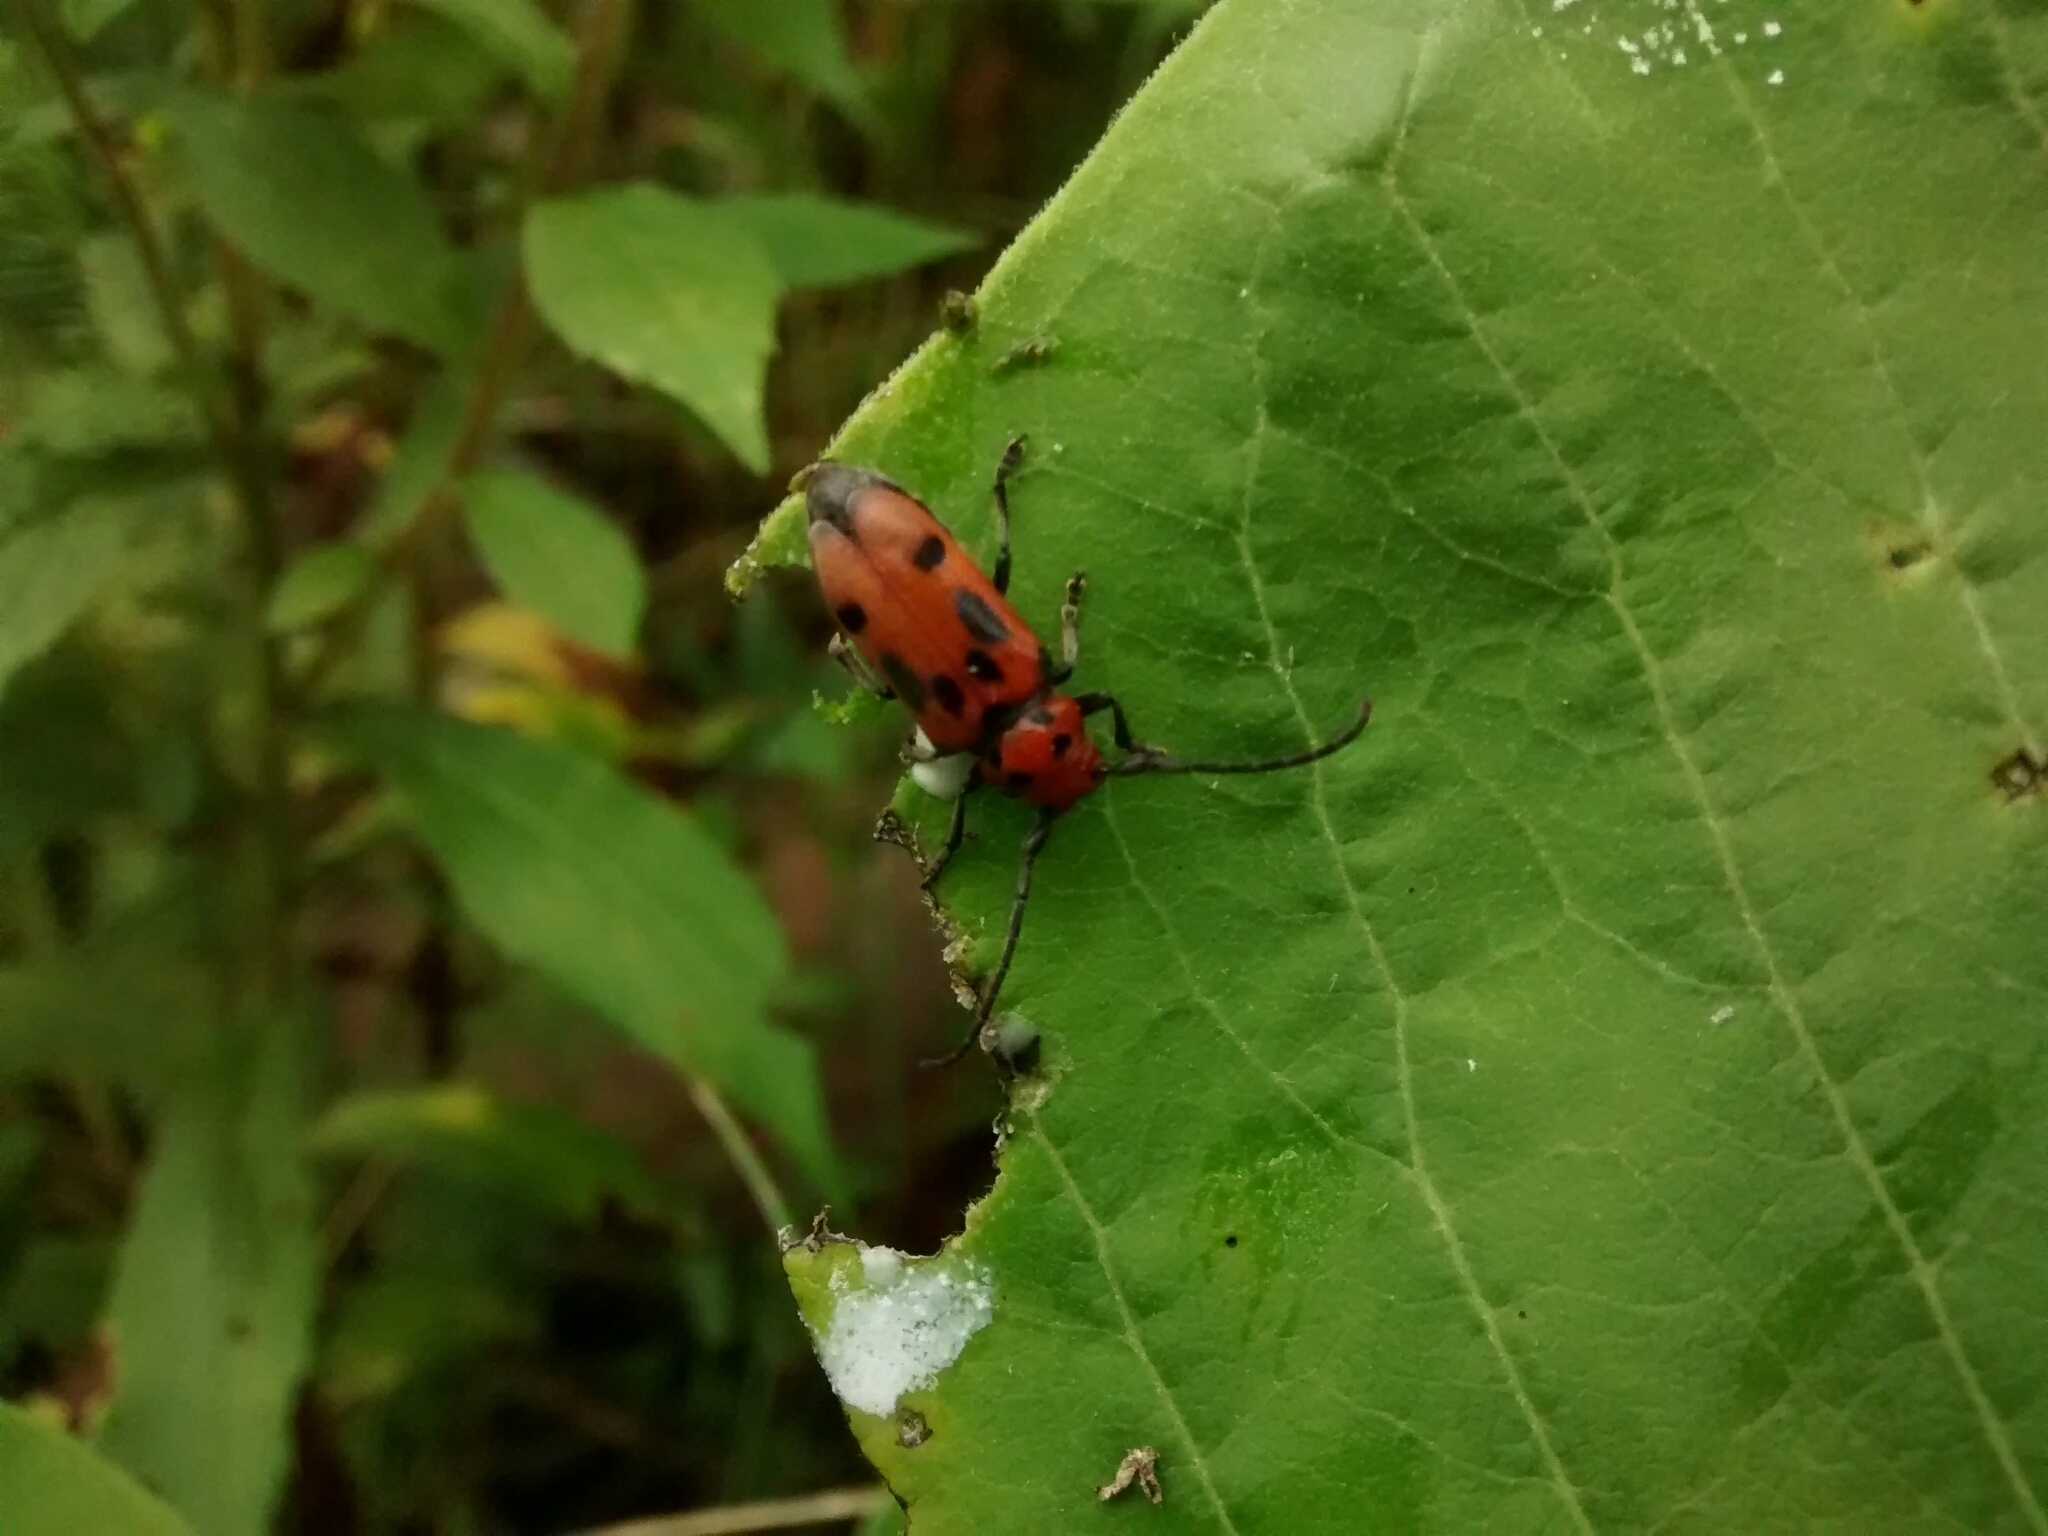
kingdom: Animalia
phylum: Arthropoda
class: Insecta
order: Coleoptera
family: Cerambycidae
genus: Tetraopes
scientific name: Tetraopes tetrophthalmus
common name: Red milkweed beetle
